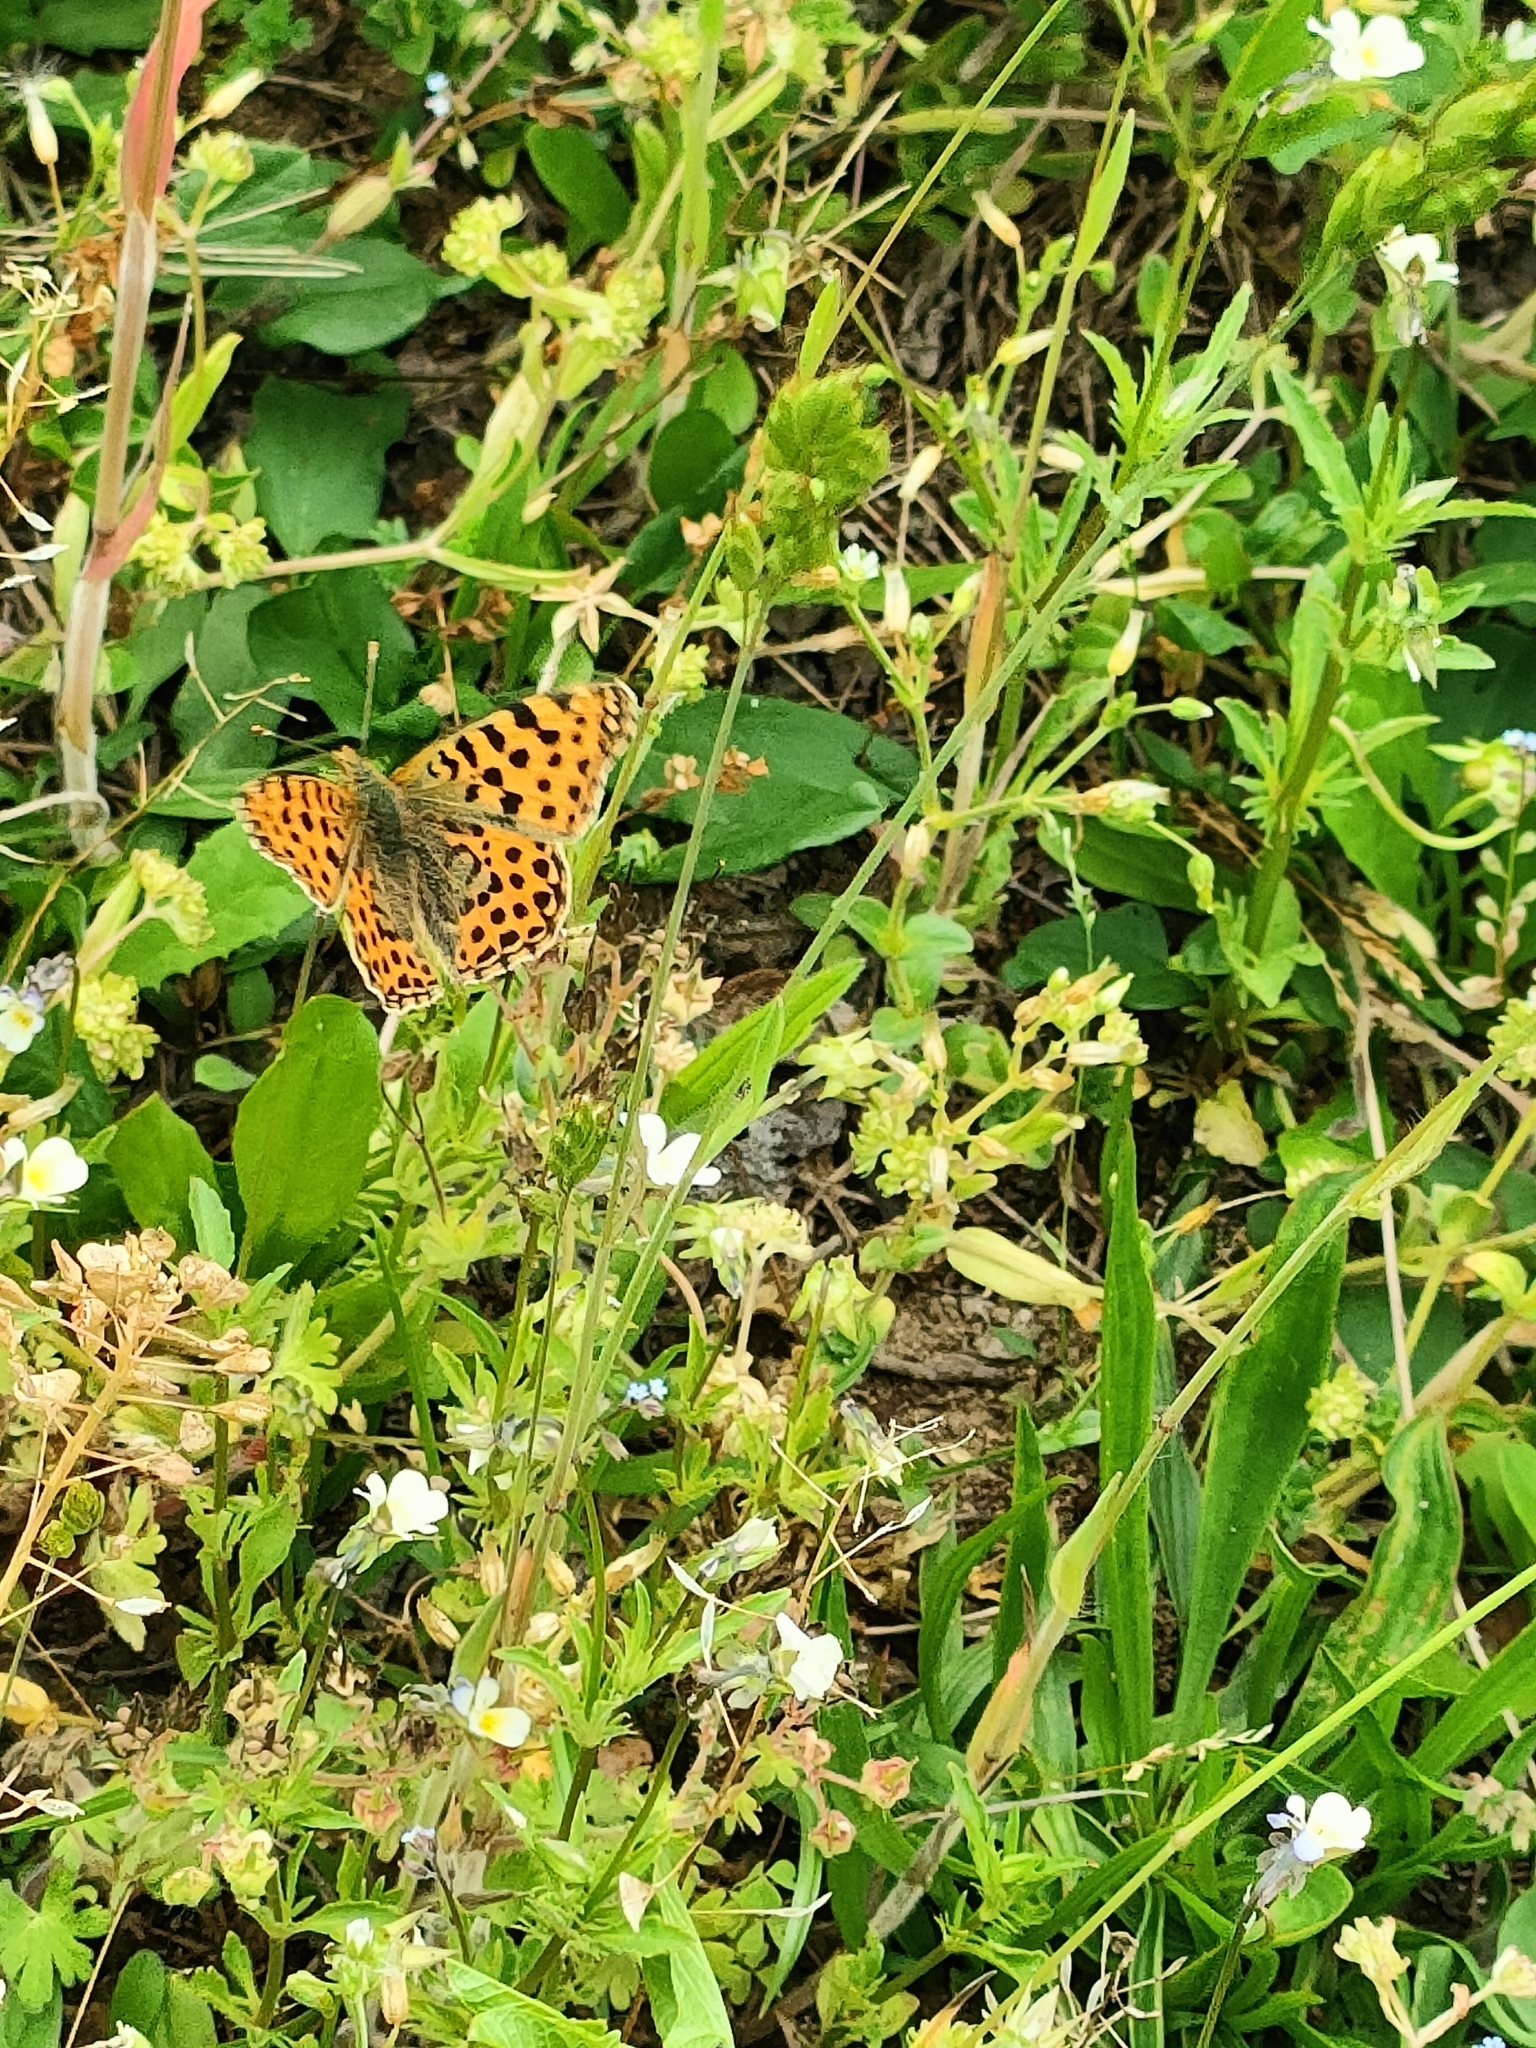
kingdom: Animalia
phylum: Arthropoda
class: Insecta
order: Lepidoptera
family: Nymphalidae
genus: Issoria
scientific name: Issoria lathonia
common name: Queen of spain fritillary
